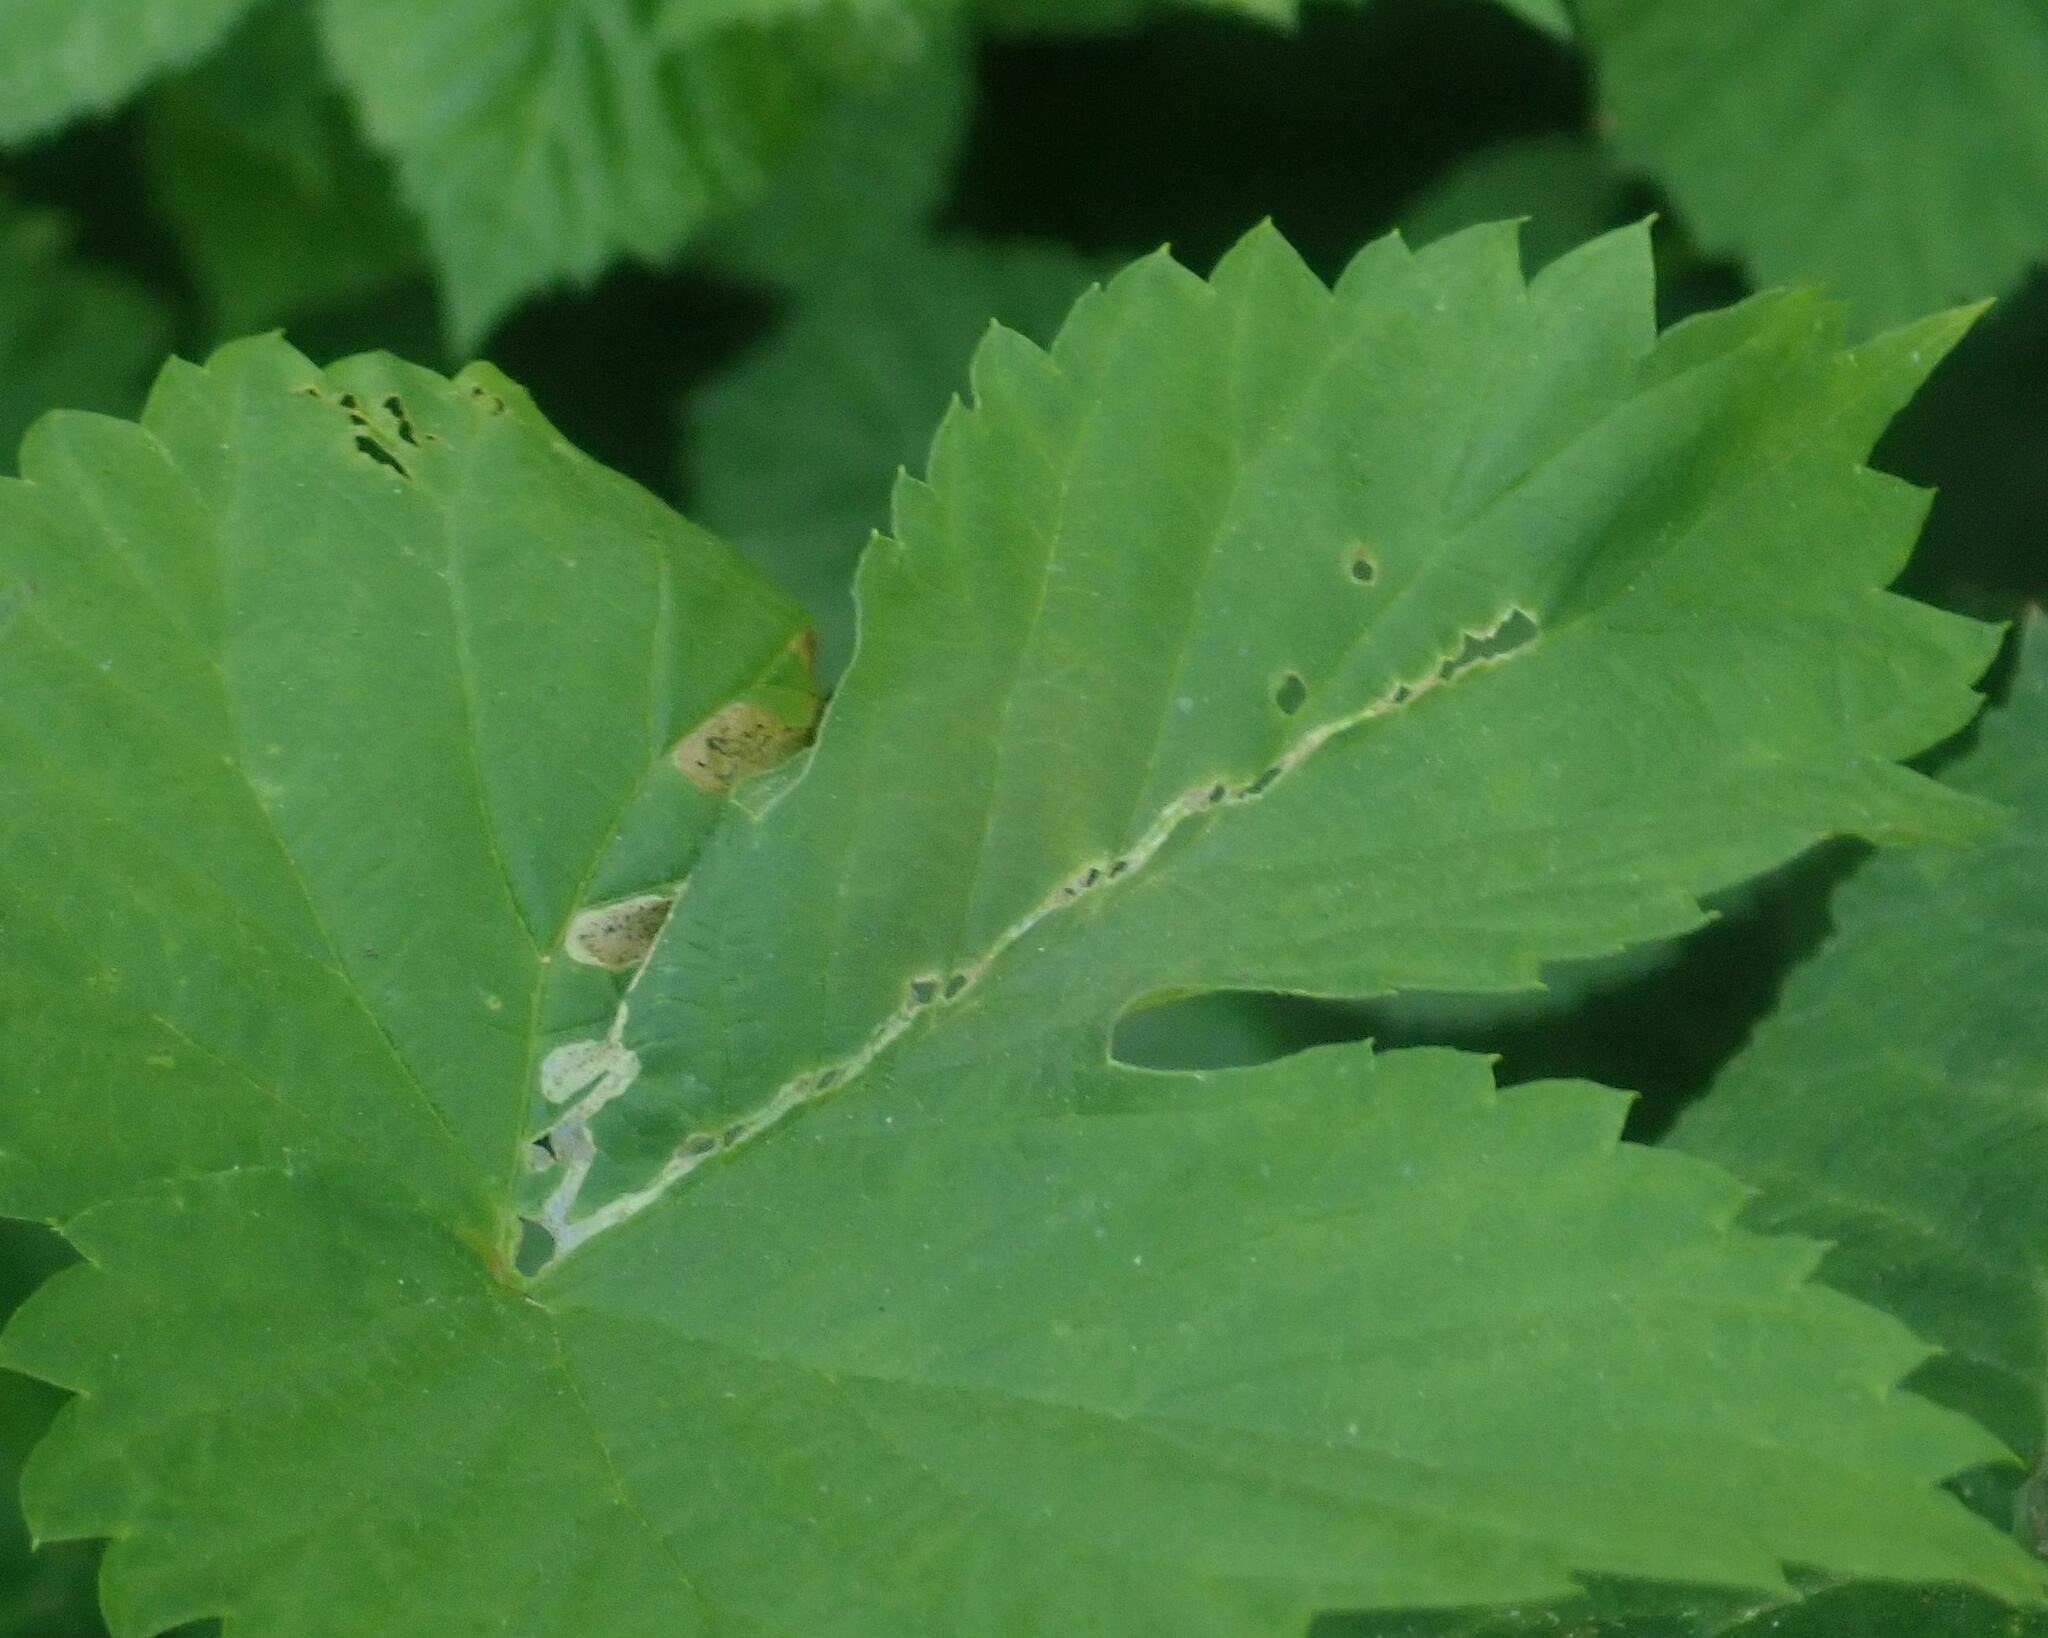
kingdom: Animalia
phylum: Arthropoda
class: Insecta
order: Diptera
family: Agromyzidae
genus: Agromyza
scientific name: Agromyza igniceps
